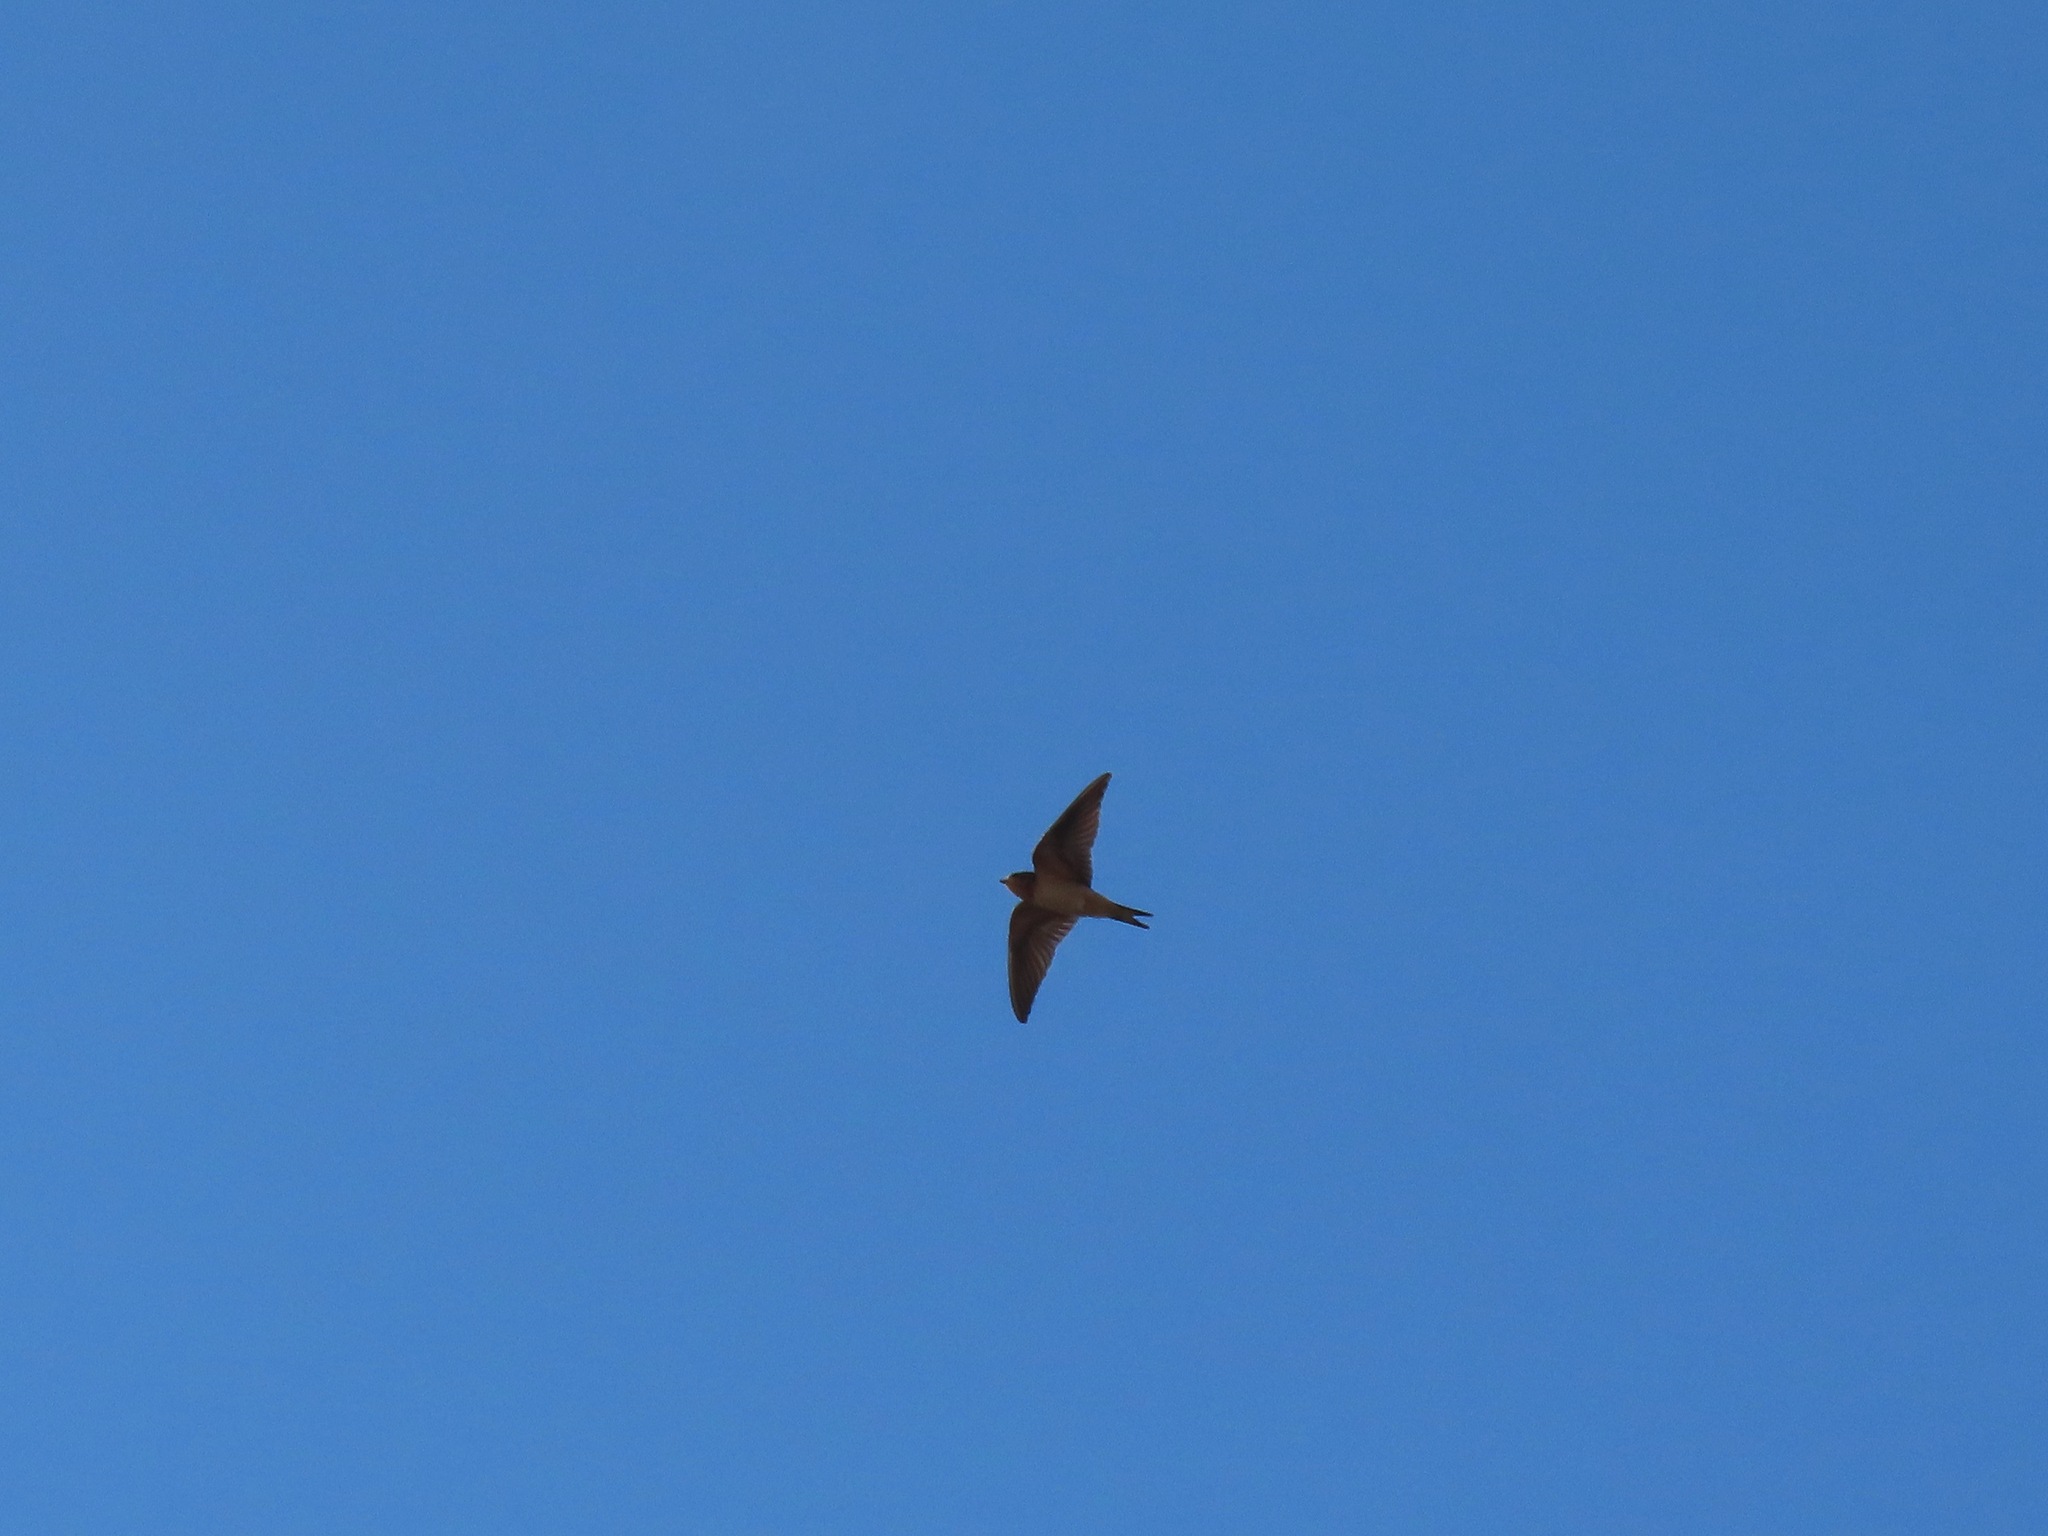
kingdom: Animalia
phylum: Chordata
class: Aves
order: Passeriformes
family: Hirundinidae
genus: Hirundo
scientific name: Hirundo rustica
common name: Barn swallow
